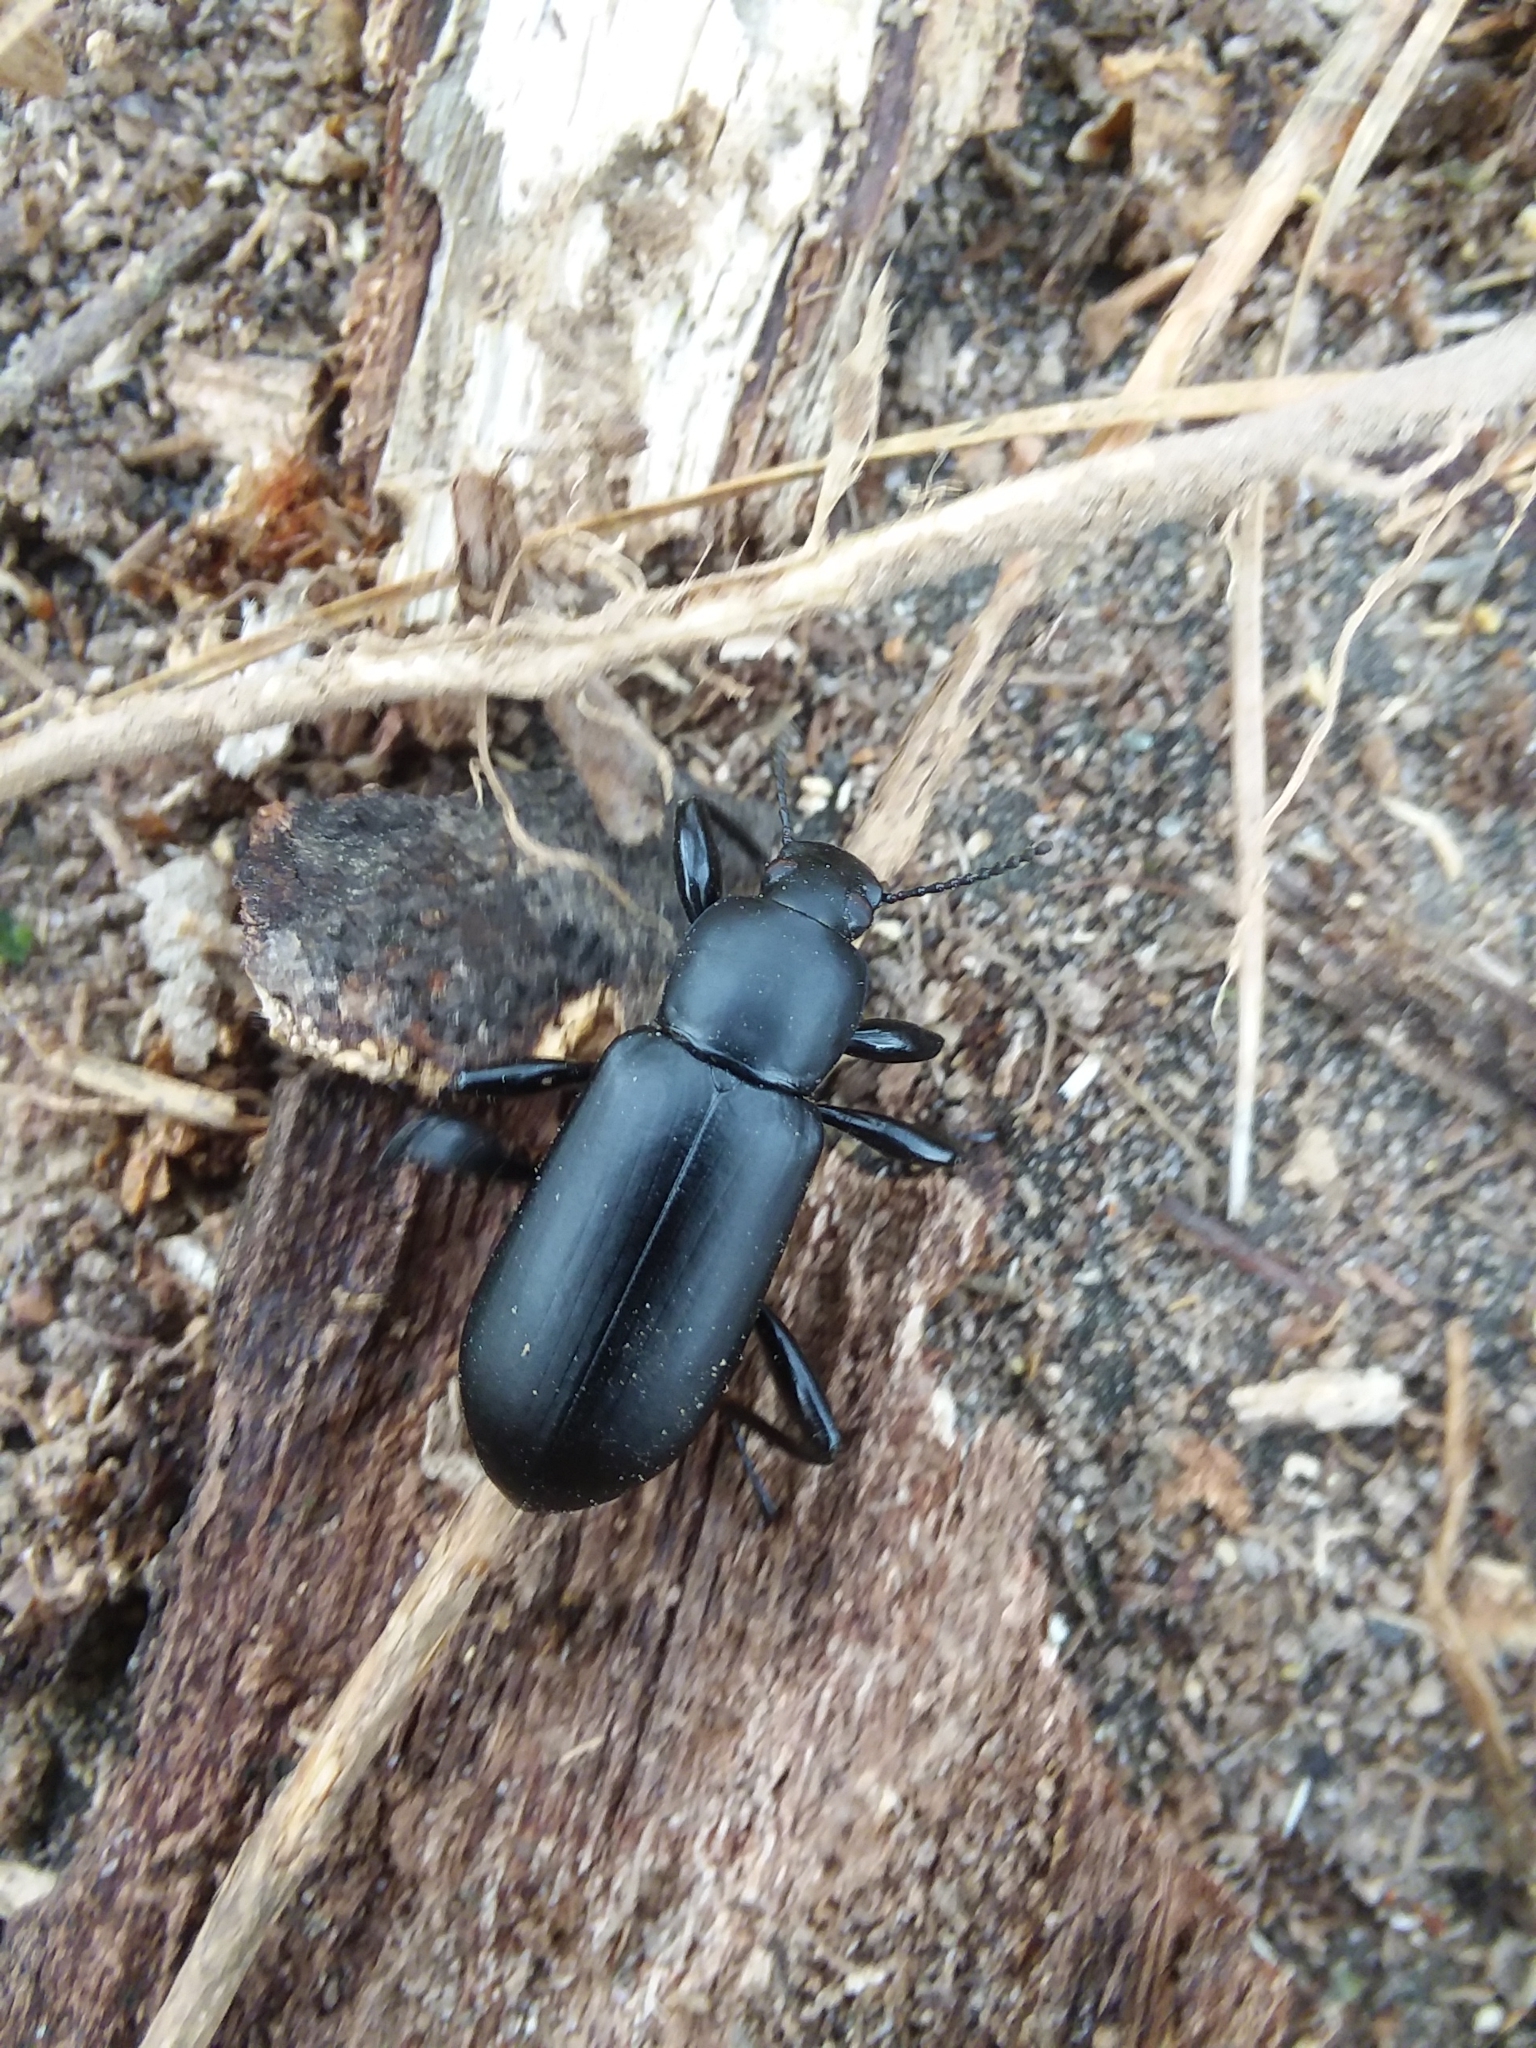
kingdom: Animalia
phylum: Arthropoda
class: Insecta
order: Coleoptera
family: Tenebrionidae
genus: Merinus
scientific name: Merinus laevis
